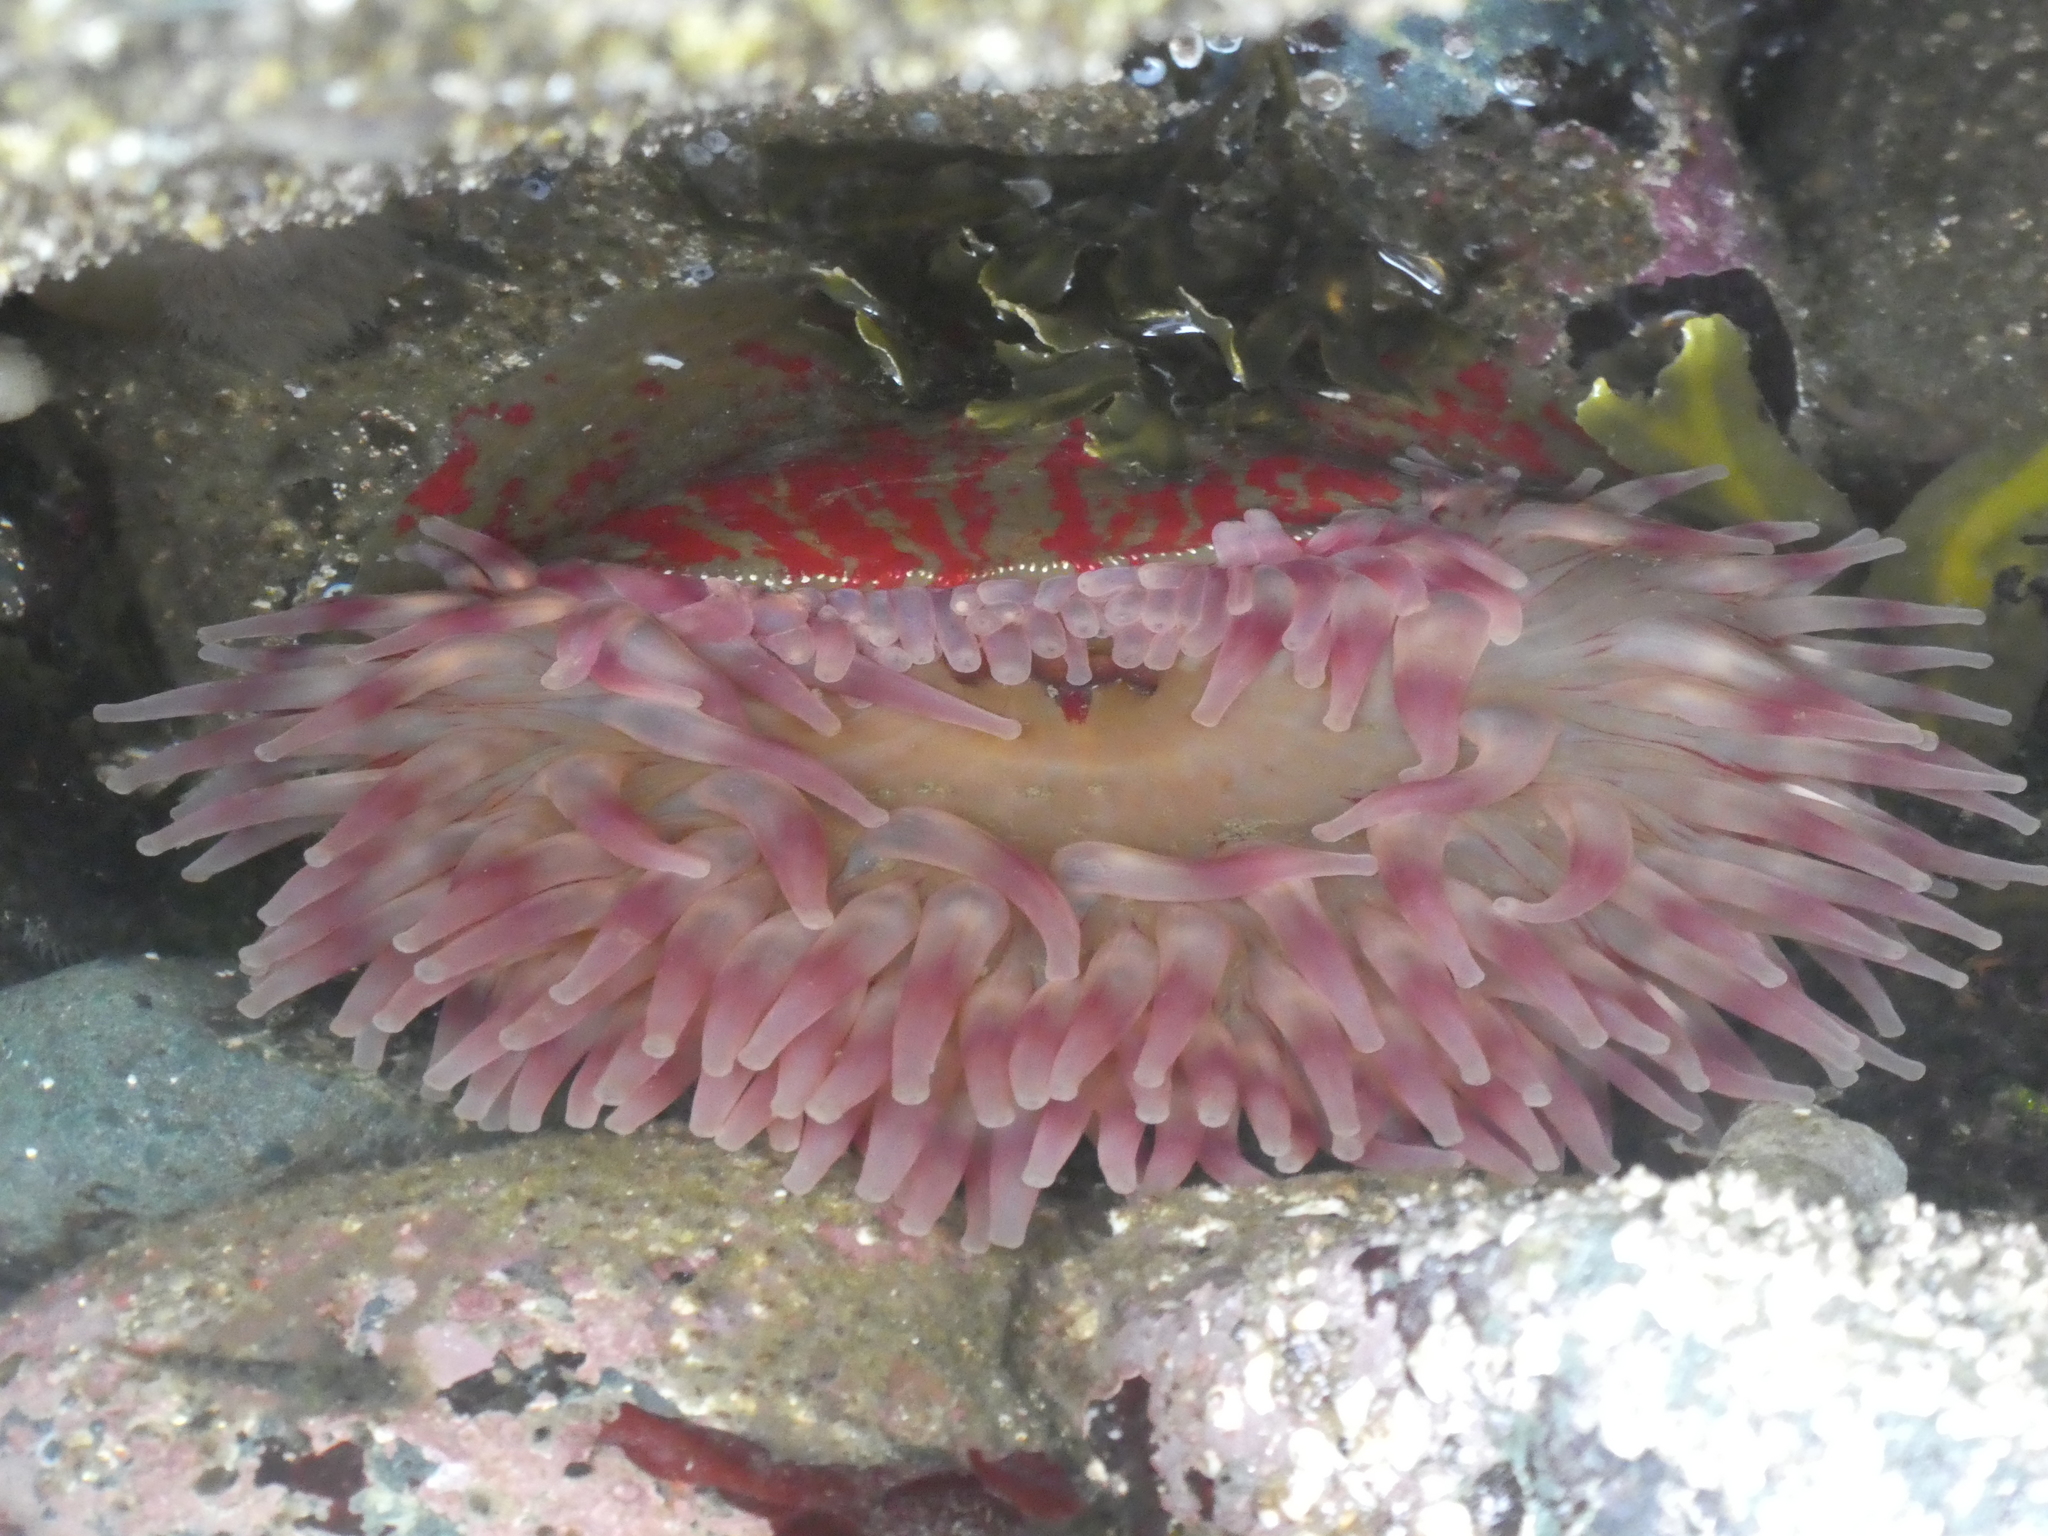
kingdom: Animalia
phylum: Cnidaria
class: Anthozoa
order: Actiniaria
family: Actiniidae
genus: Urticina
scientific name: Urticina grebelnyi
